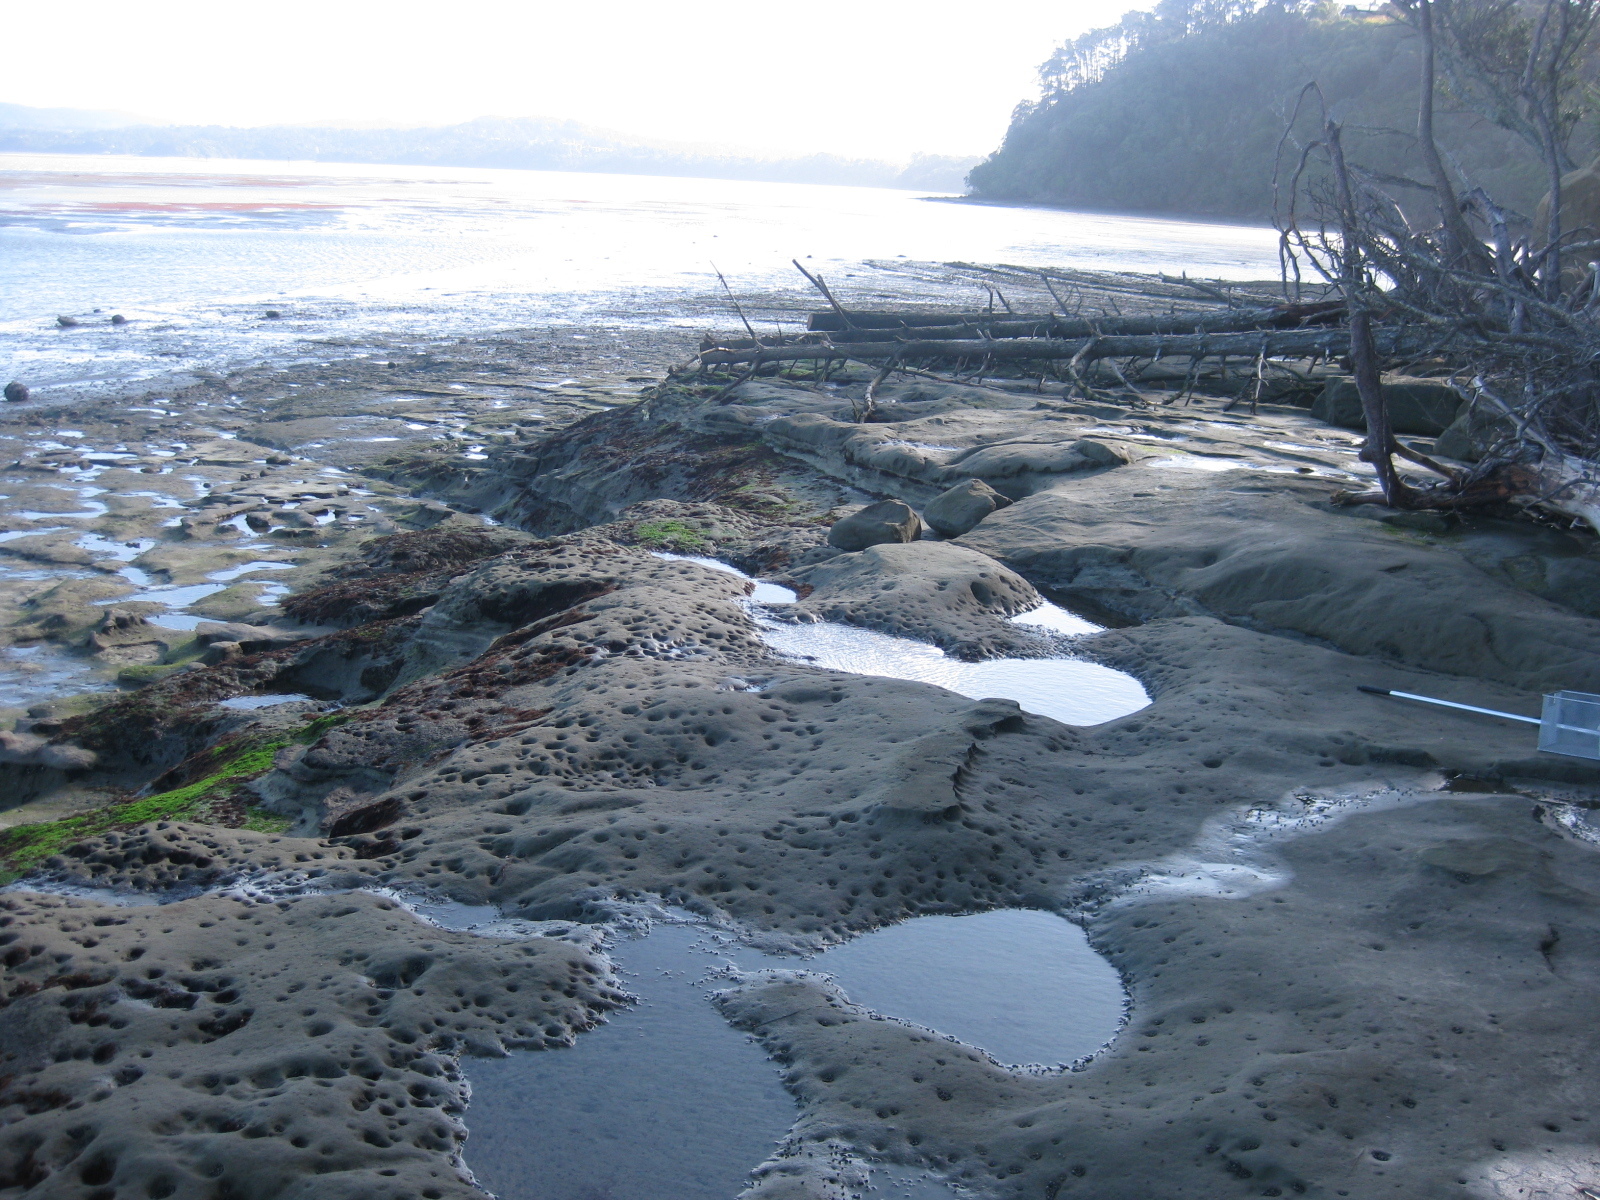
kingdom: Animalia
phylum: Mollusca
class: Gastropoda
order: Littorinimorpha
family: Littorinidae
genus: Austrolittorina
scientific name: Austrolittorina antipodum
